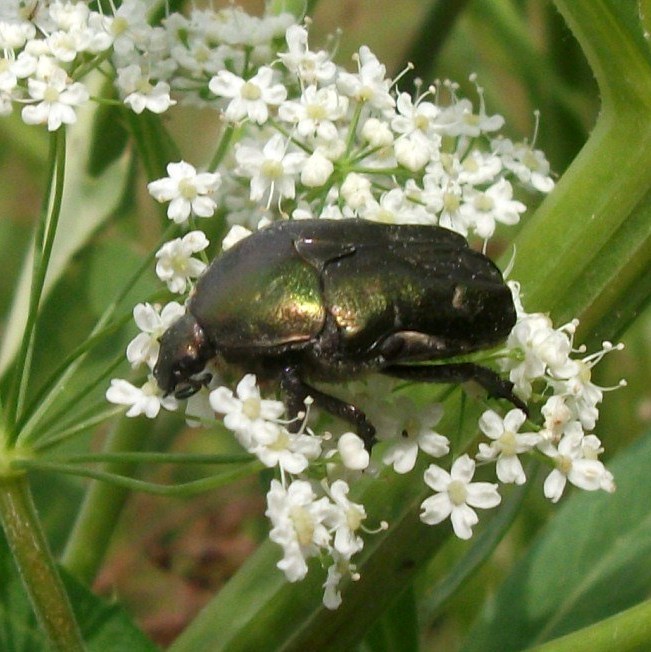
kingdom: Animalia
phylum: Arthropoda
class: Insecta
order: Coleoptera
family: Scarabaeidae
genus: Protaetia
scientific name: Protaetia cuprea
